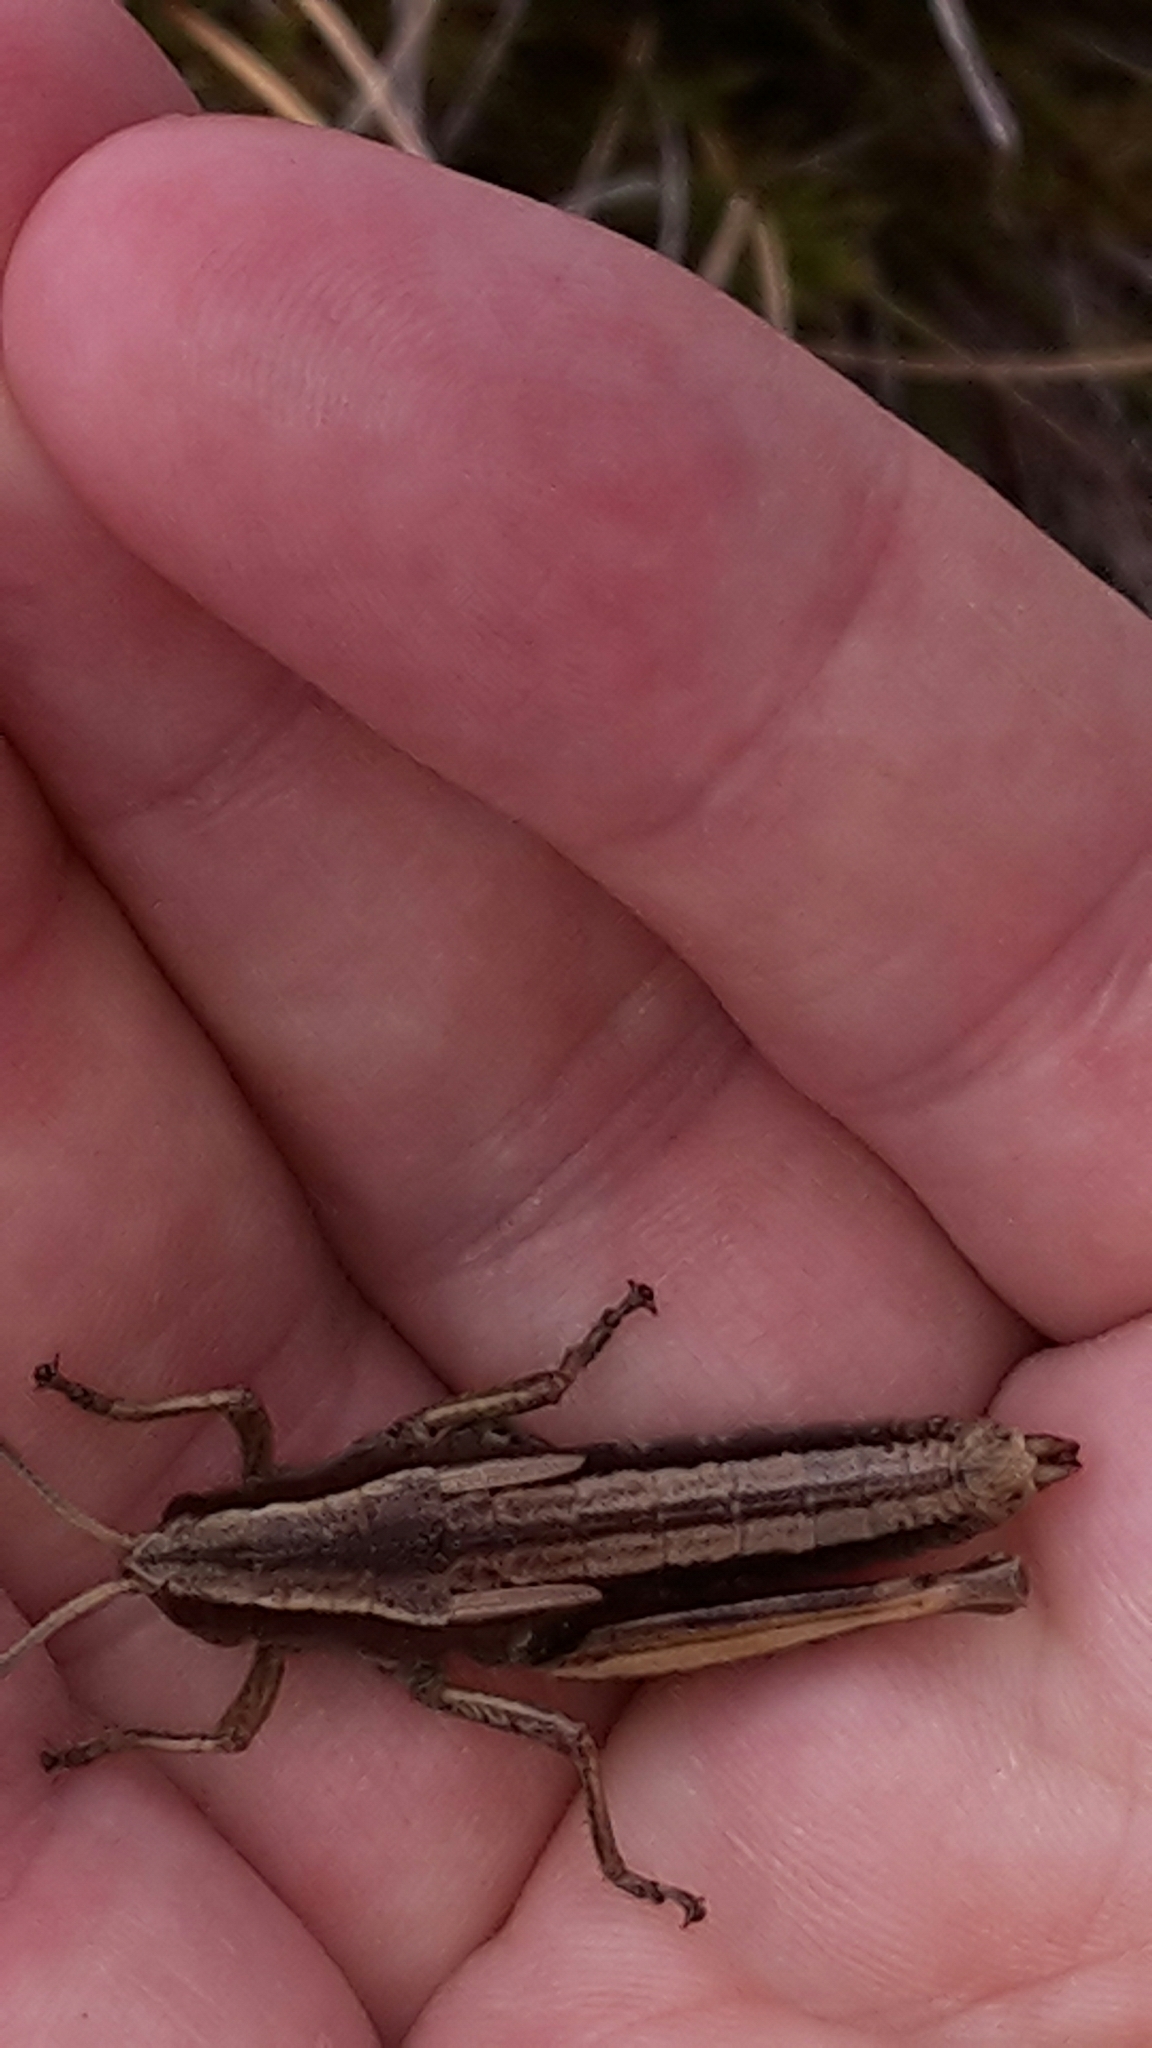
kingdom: Animalia
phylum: Arthropoda
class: Insecta
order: Orthoptera
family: Acrididae
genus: Sigaus
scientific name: Sigaus piliferus
